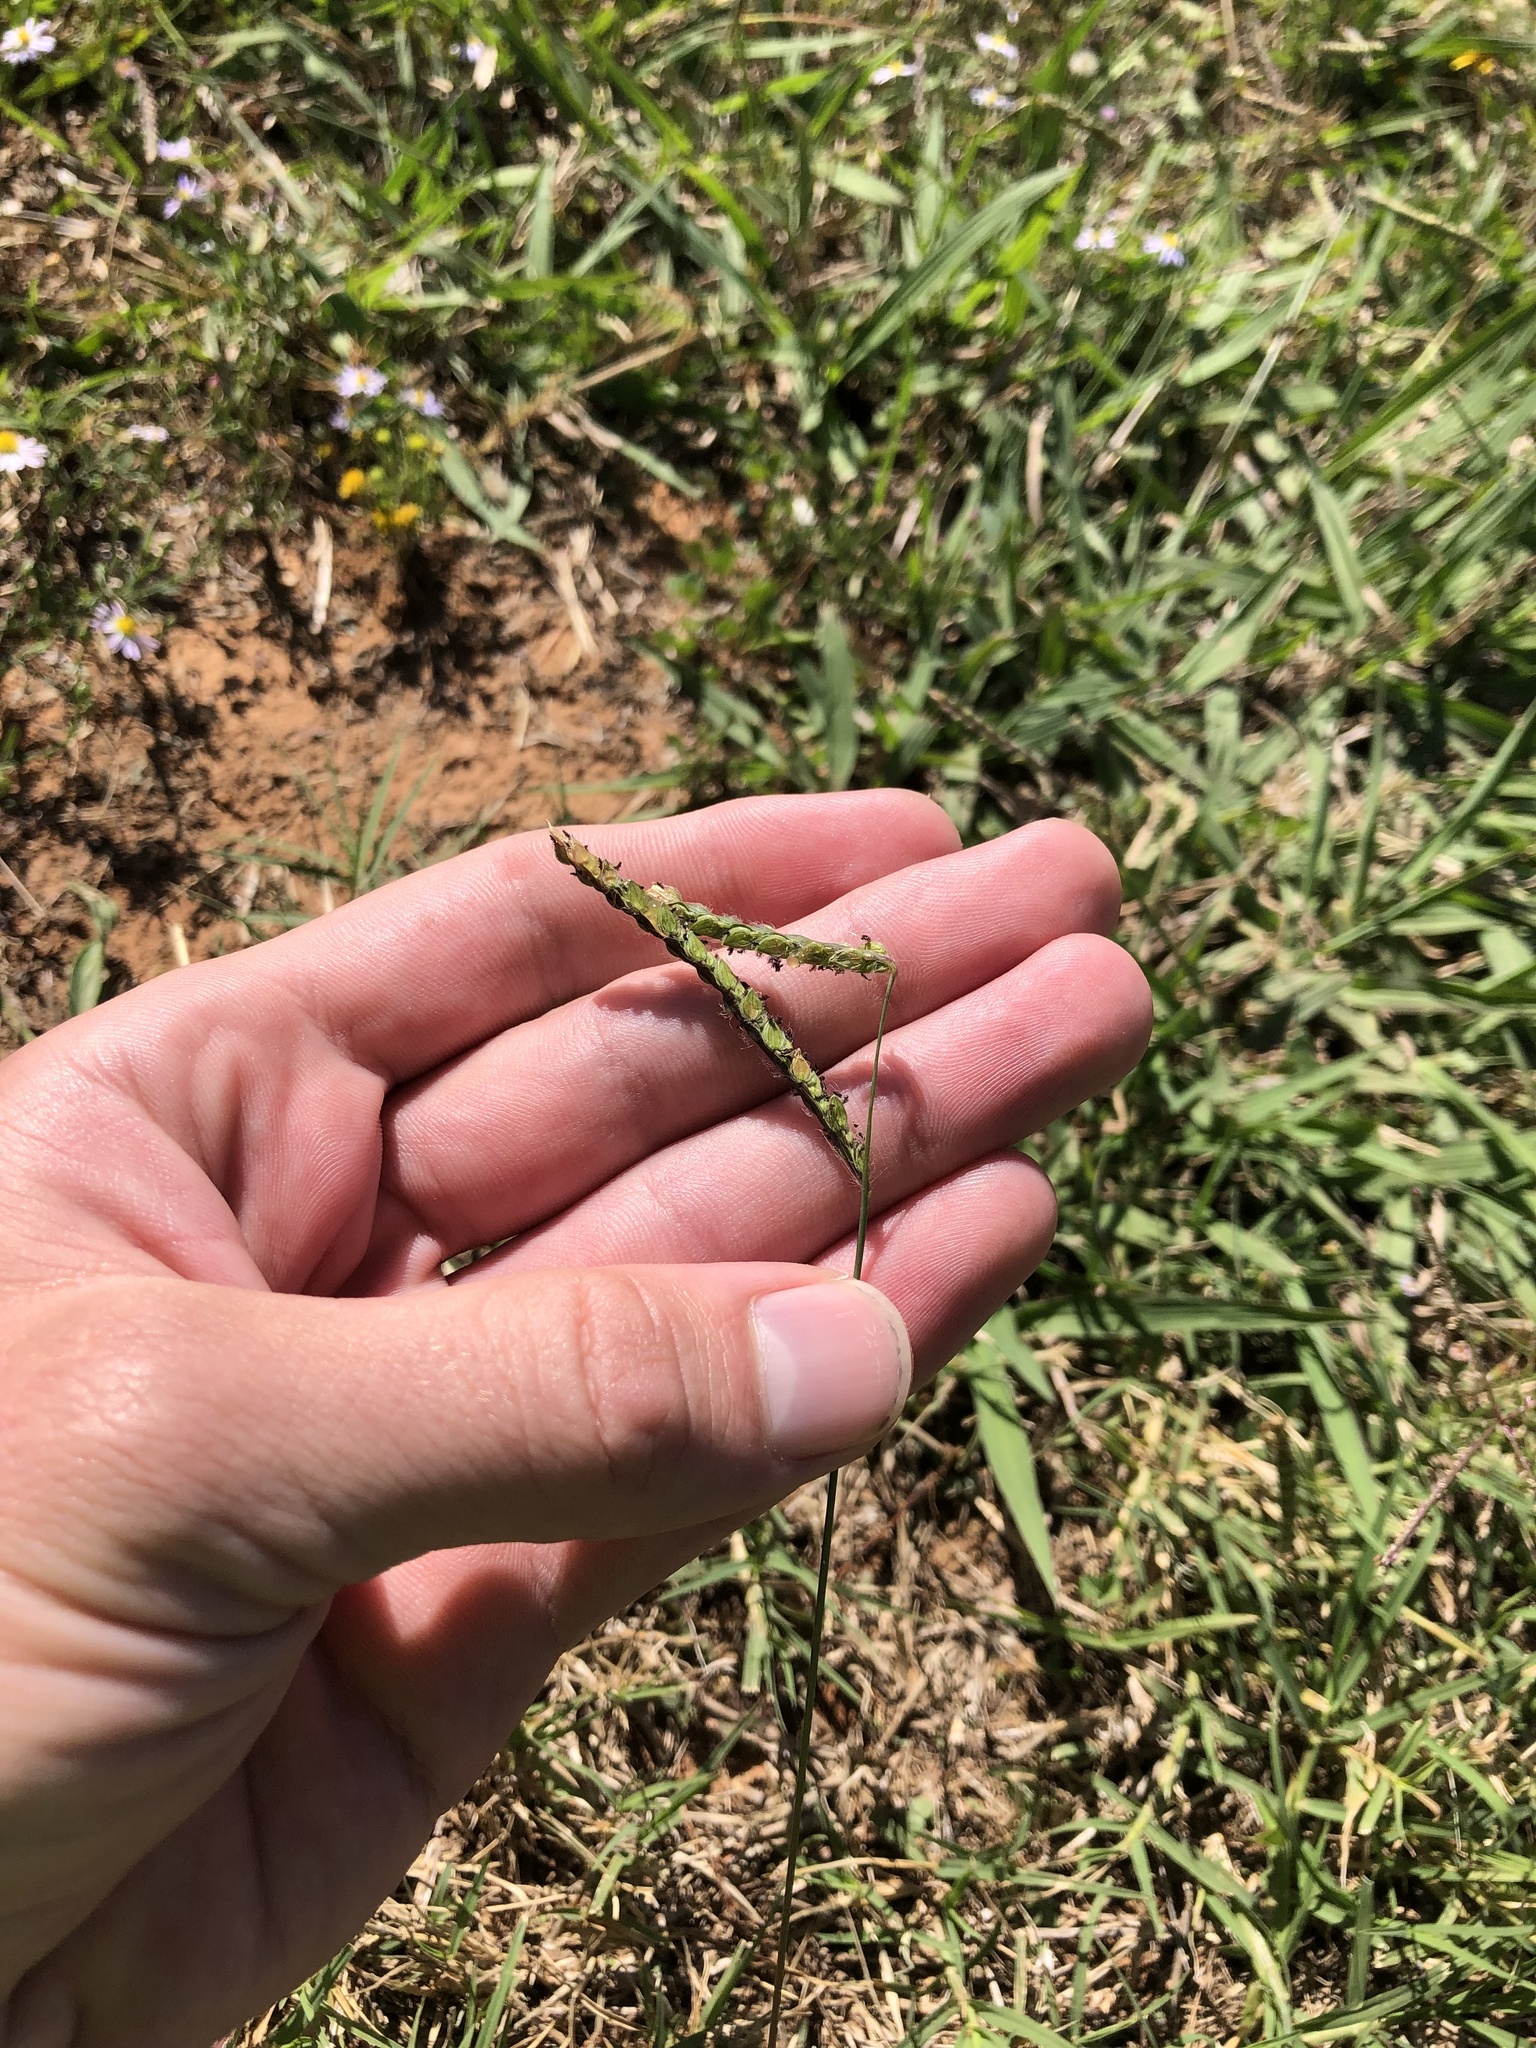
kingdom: Plantae
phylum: Tracheophyta
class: Liliopsida
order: Poales
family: Poaceae
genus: Paspalum
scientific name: Paspalum dilatatum
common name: Dallisgrass
